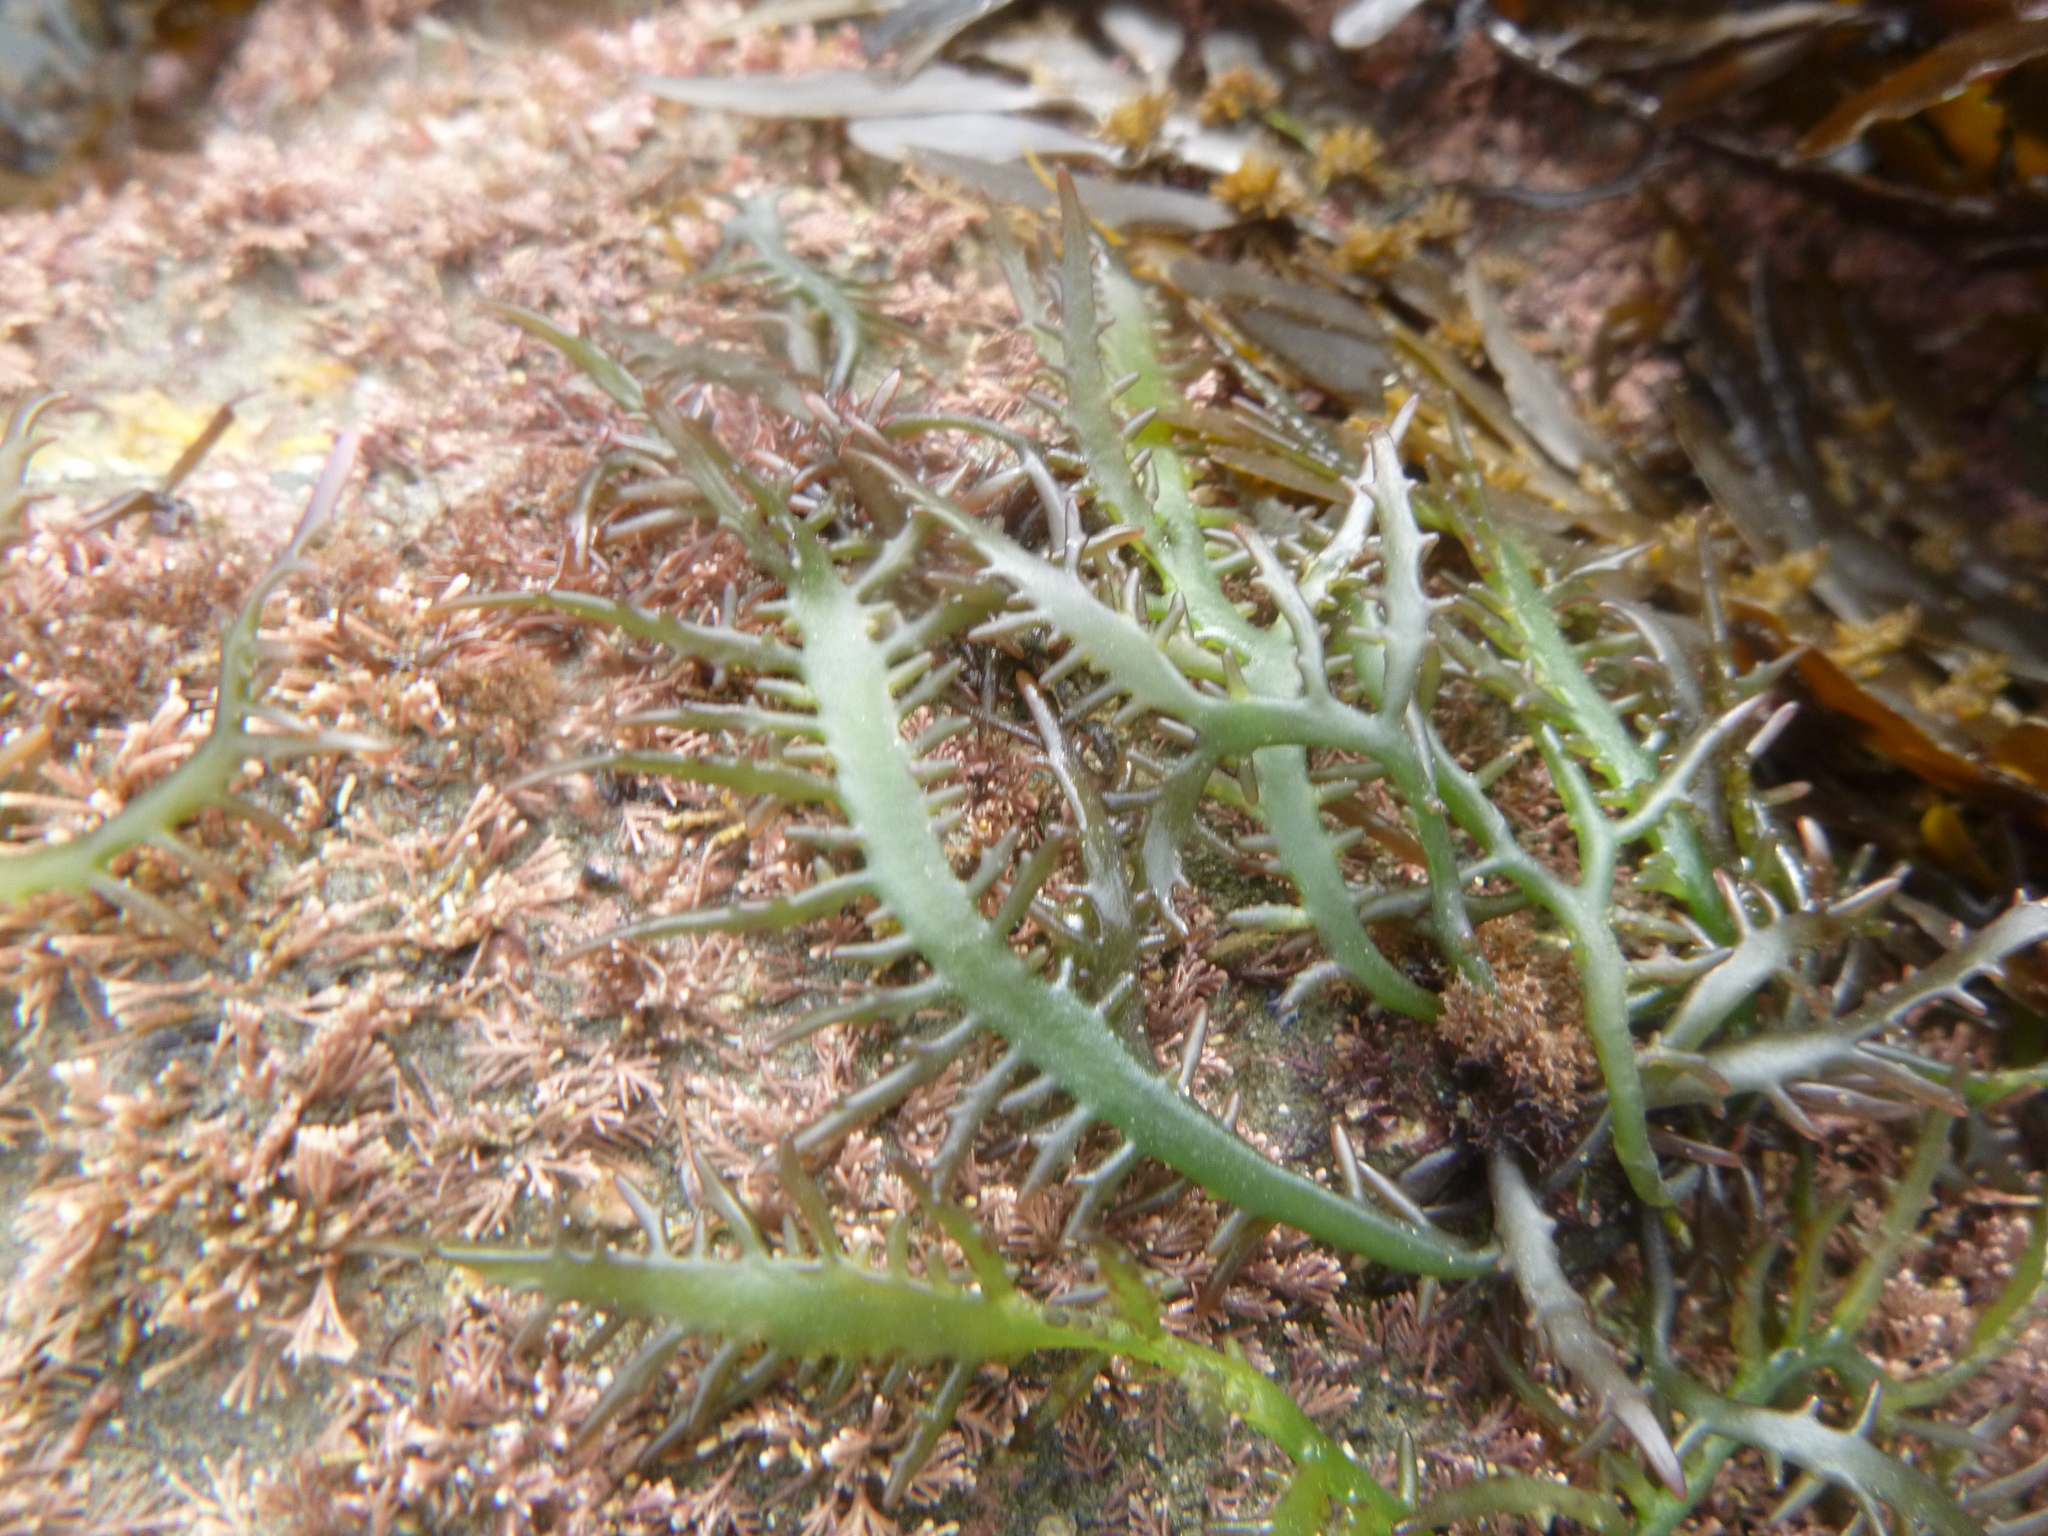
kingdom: Plantae
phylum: Rhodophyta
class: Florideophyceae
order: Gigartinales
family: Gigartinaceae
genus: Sarcothalia
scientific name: Sarcothalia marginifera
